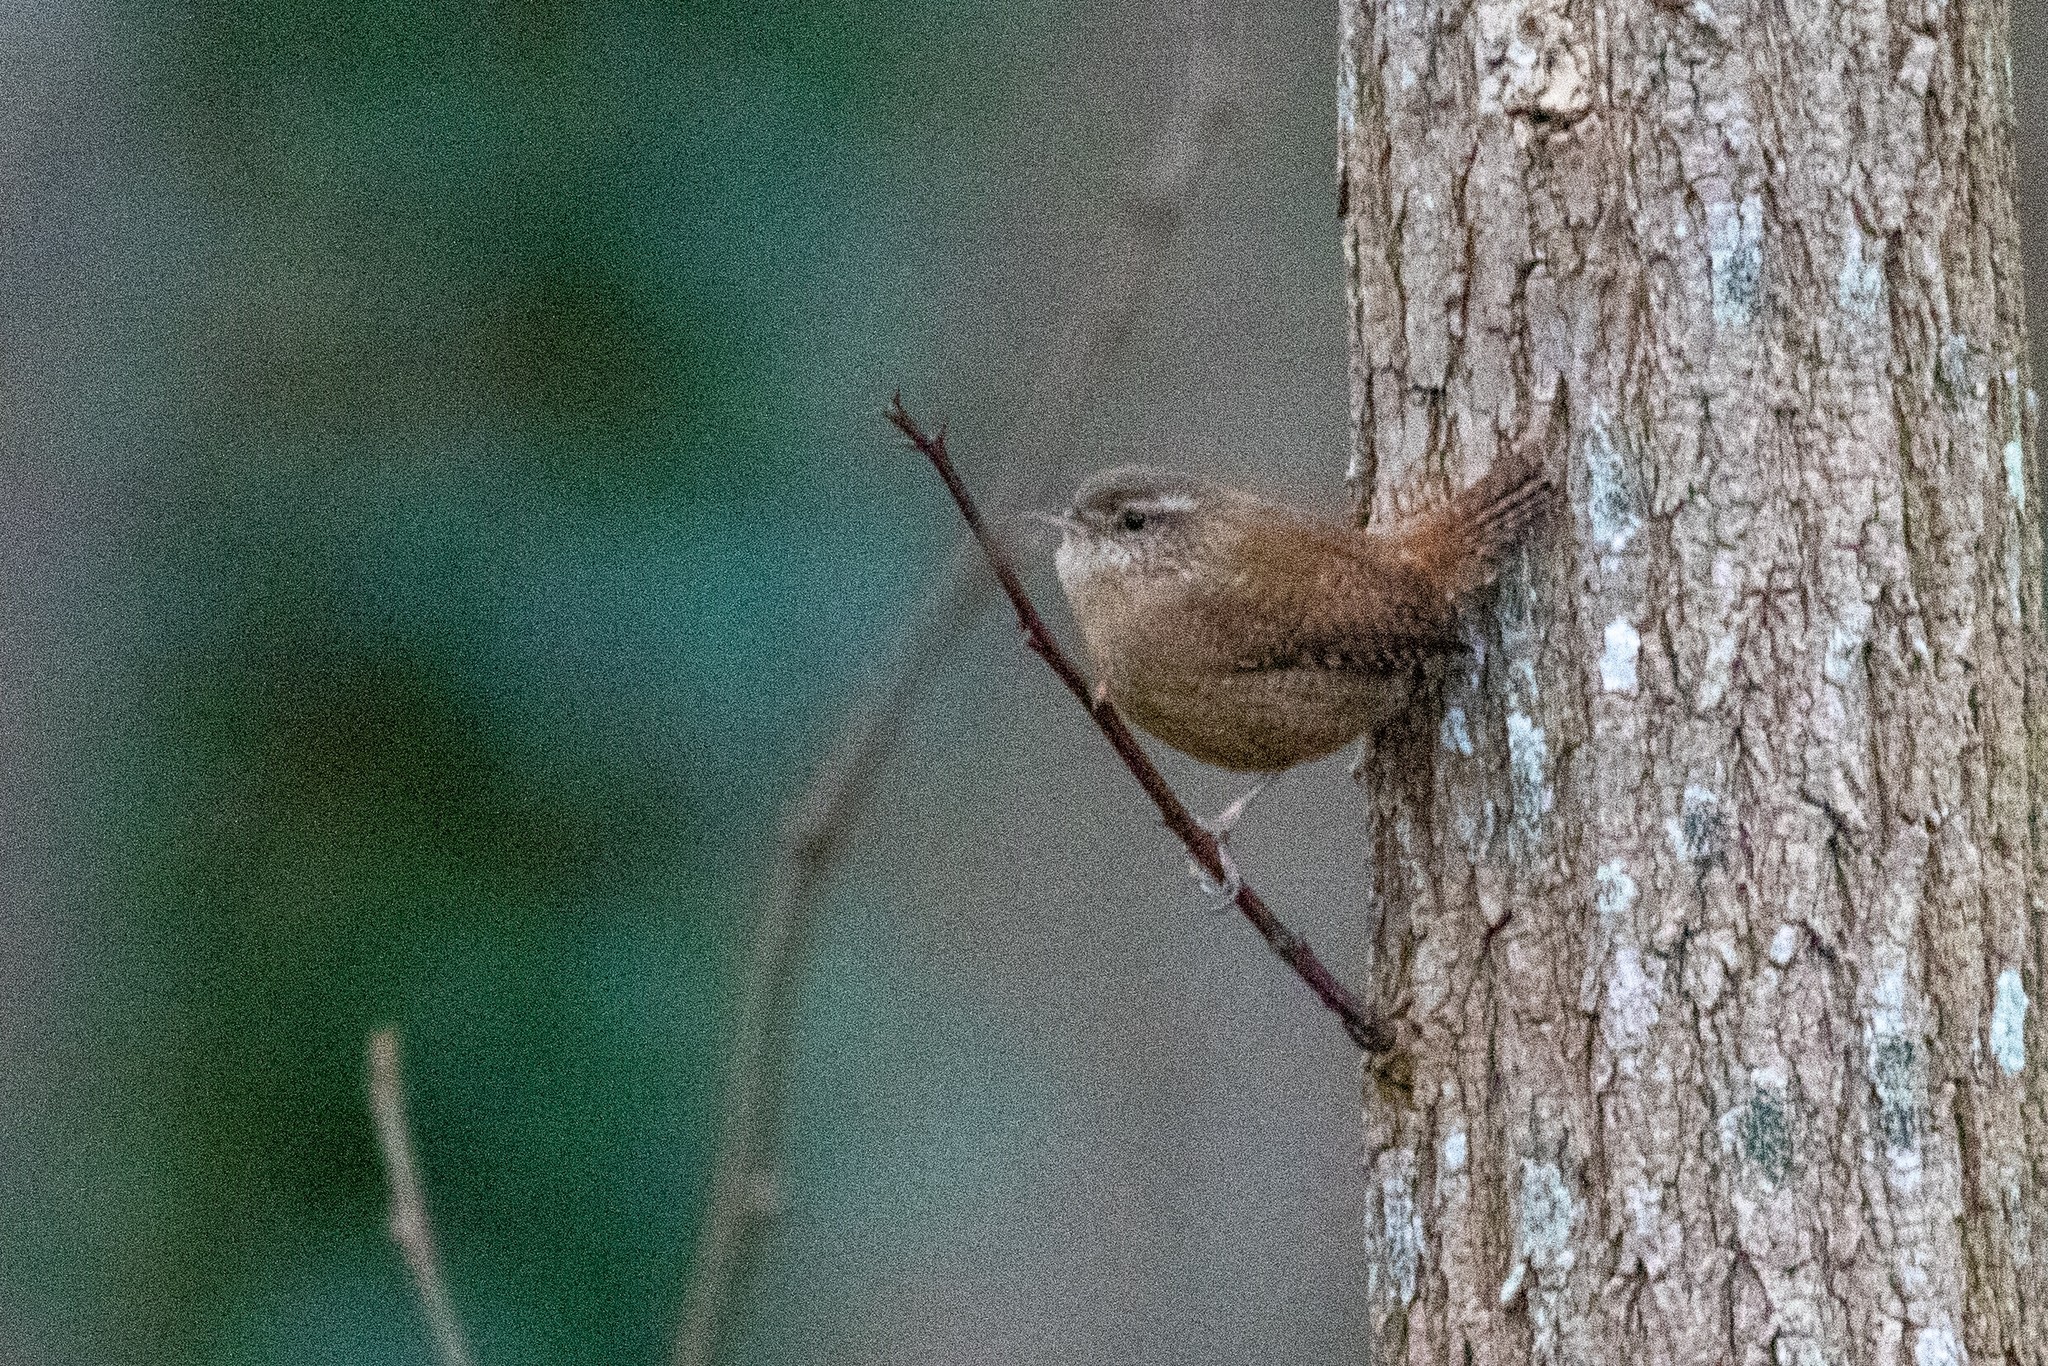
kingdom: Animalia
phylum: Chordata
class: Aves
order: Passeriformes
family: Troglodytidae
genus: Troglodytes
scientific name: Troglodytes troglodytes
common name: Eurasian wren
